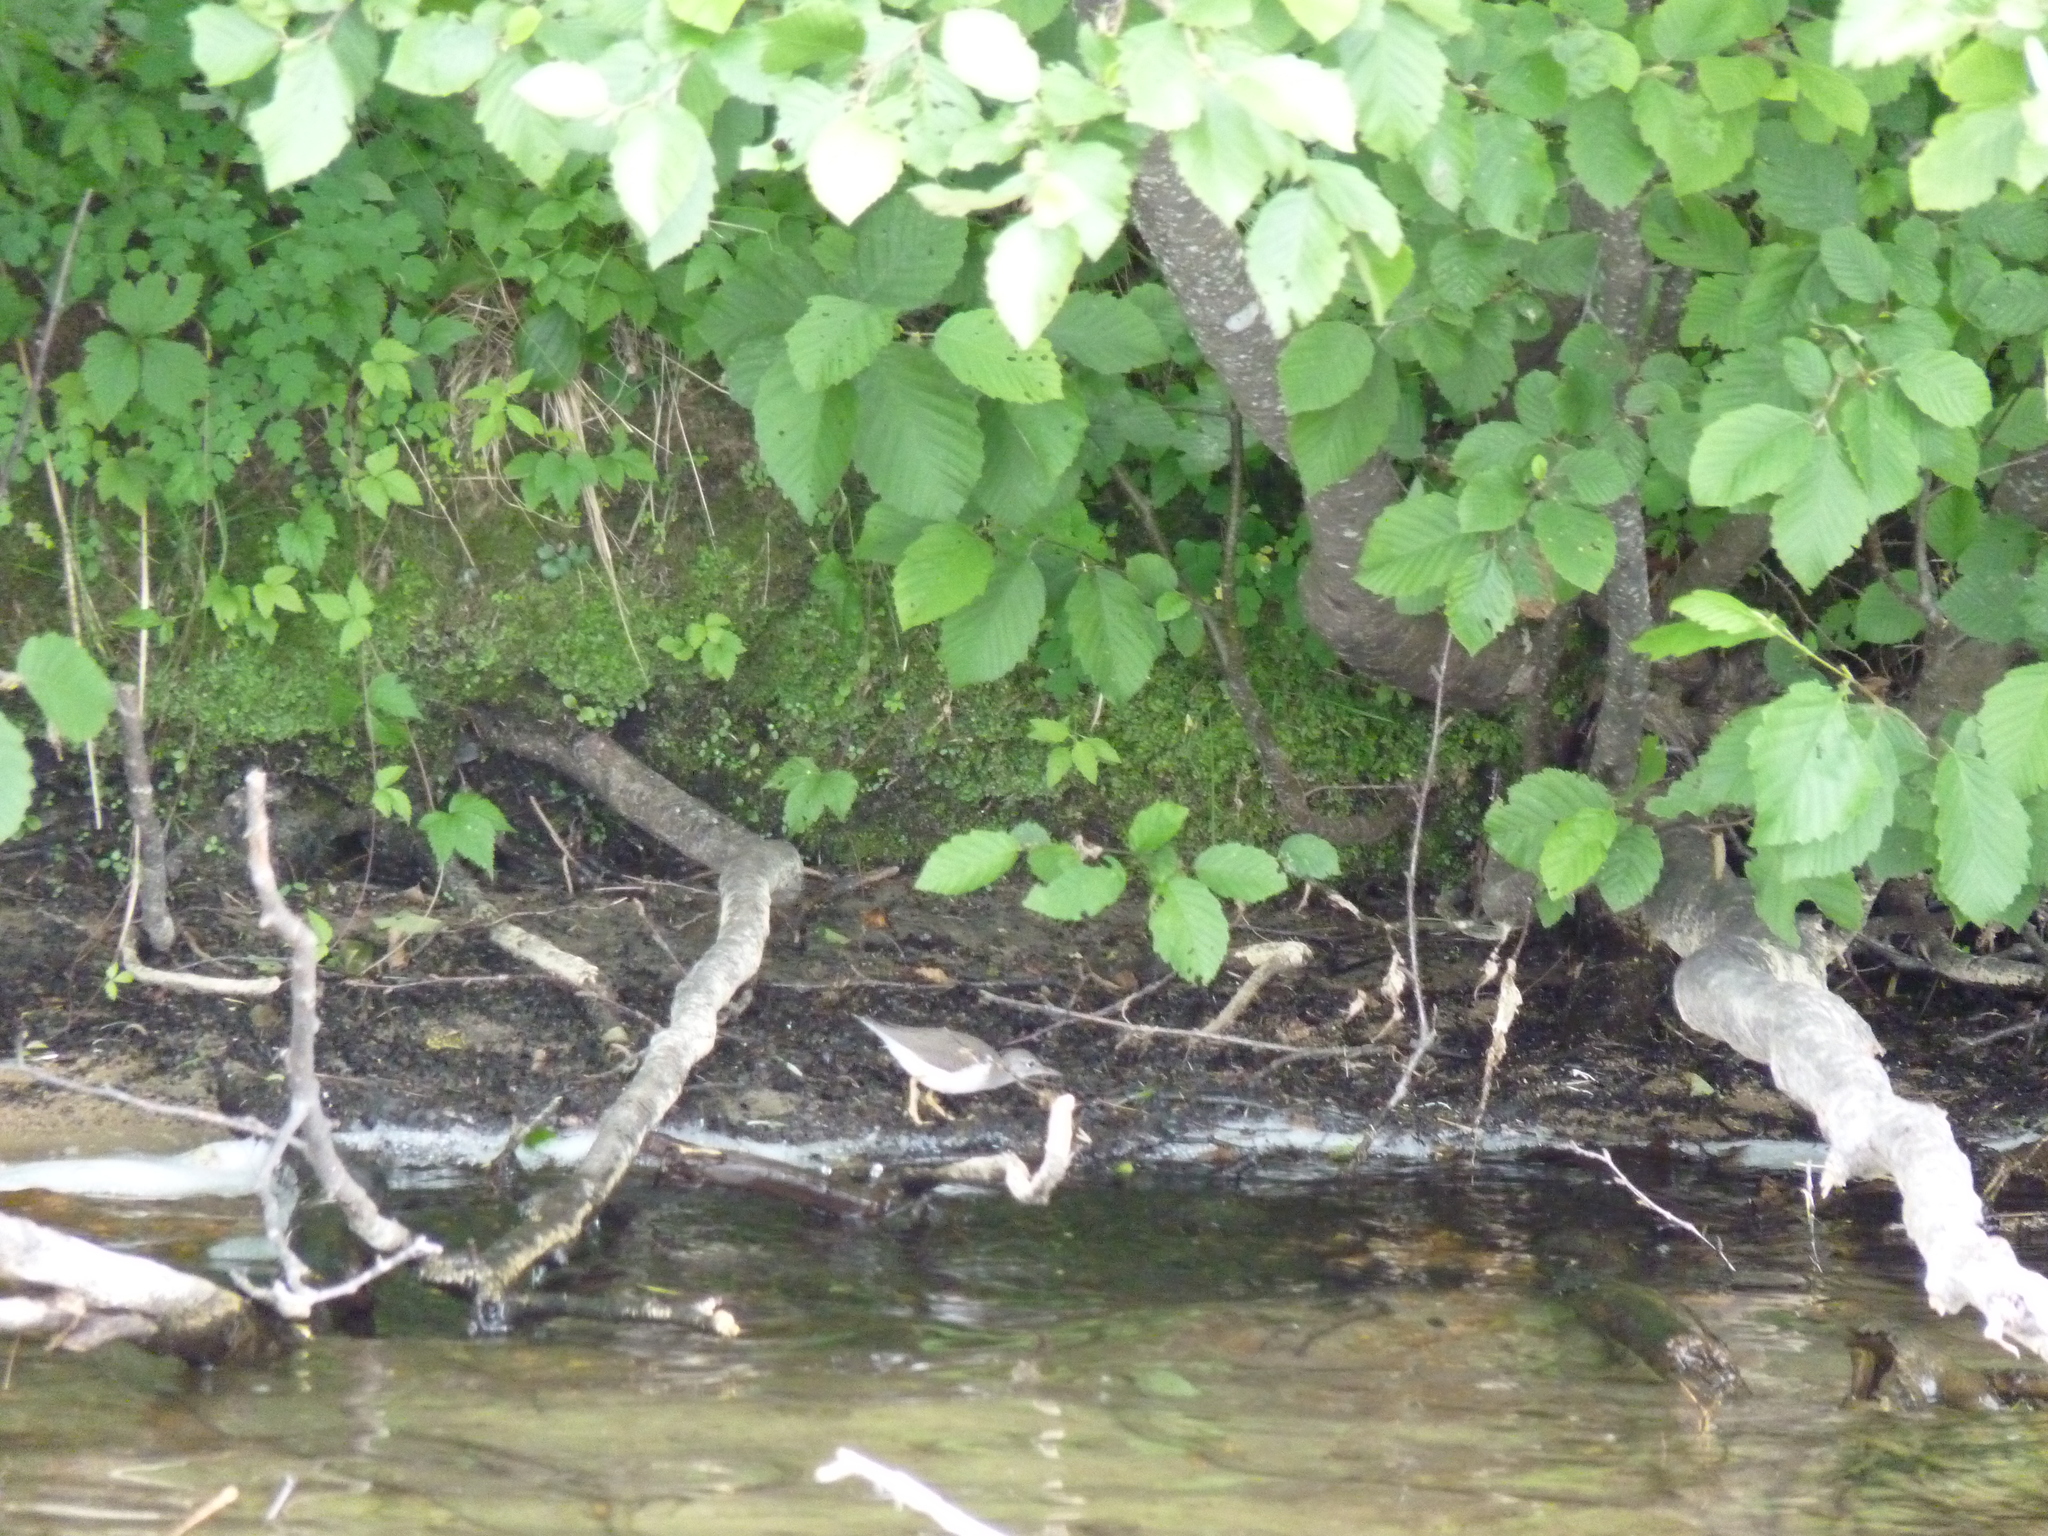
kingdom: Animalia
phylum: Chordata
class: Aves
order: Charadriiformes
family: Scolopacidae
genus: Actitis
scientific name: Actitis macularius
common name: Spotted sandpiper
